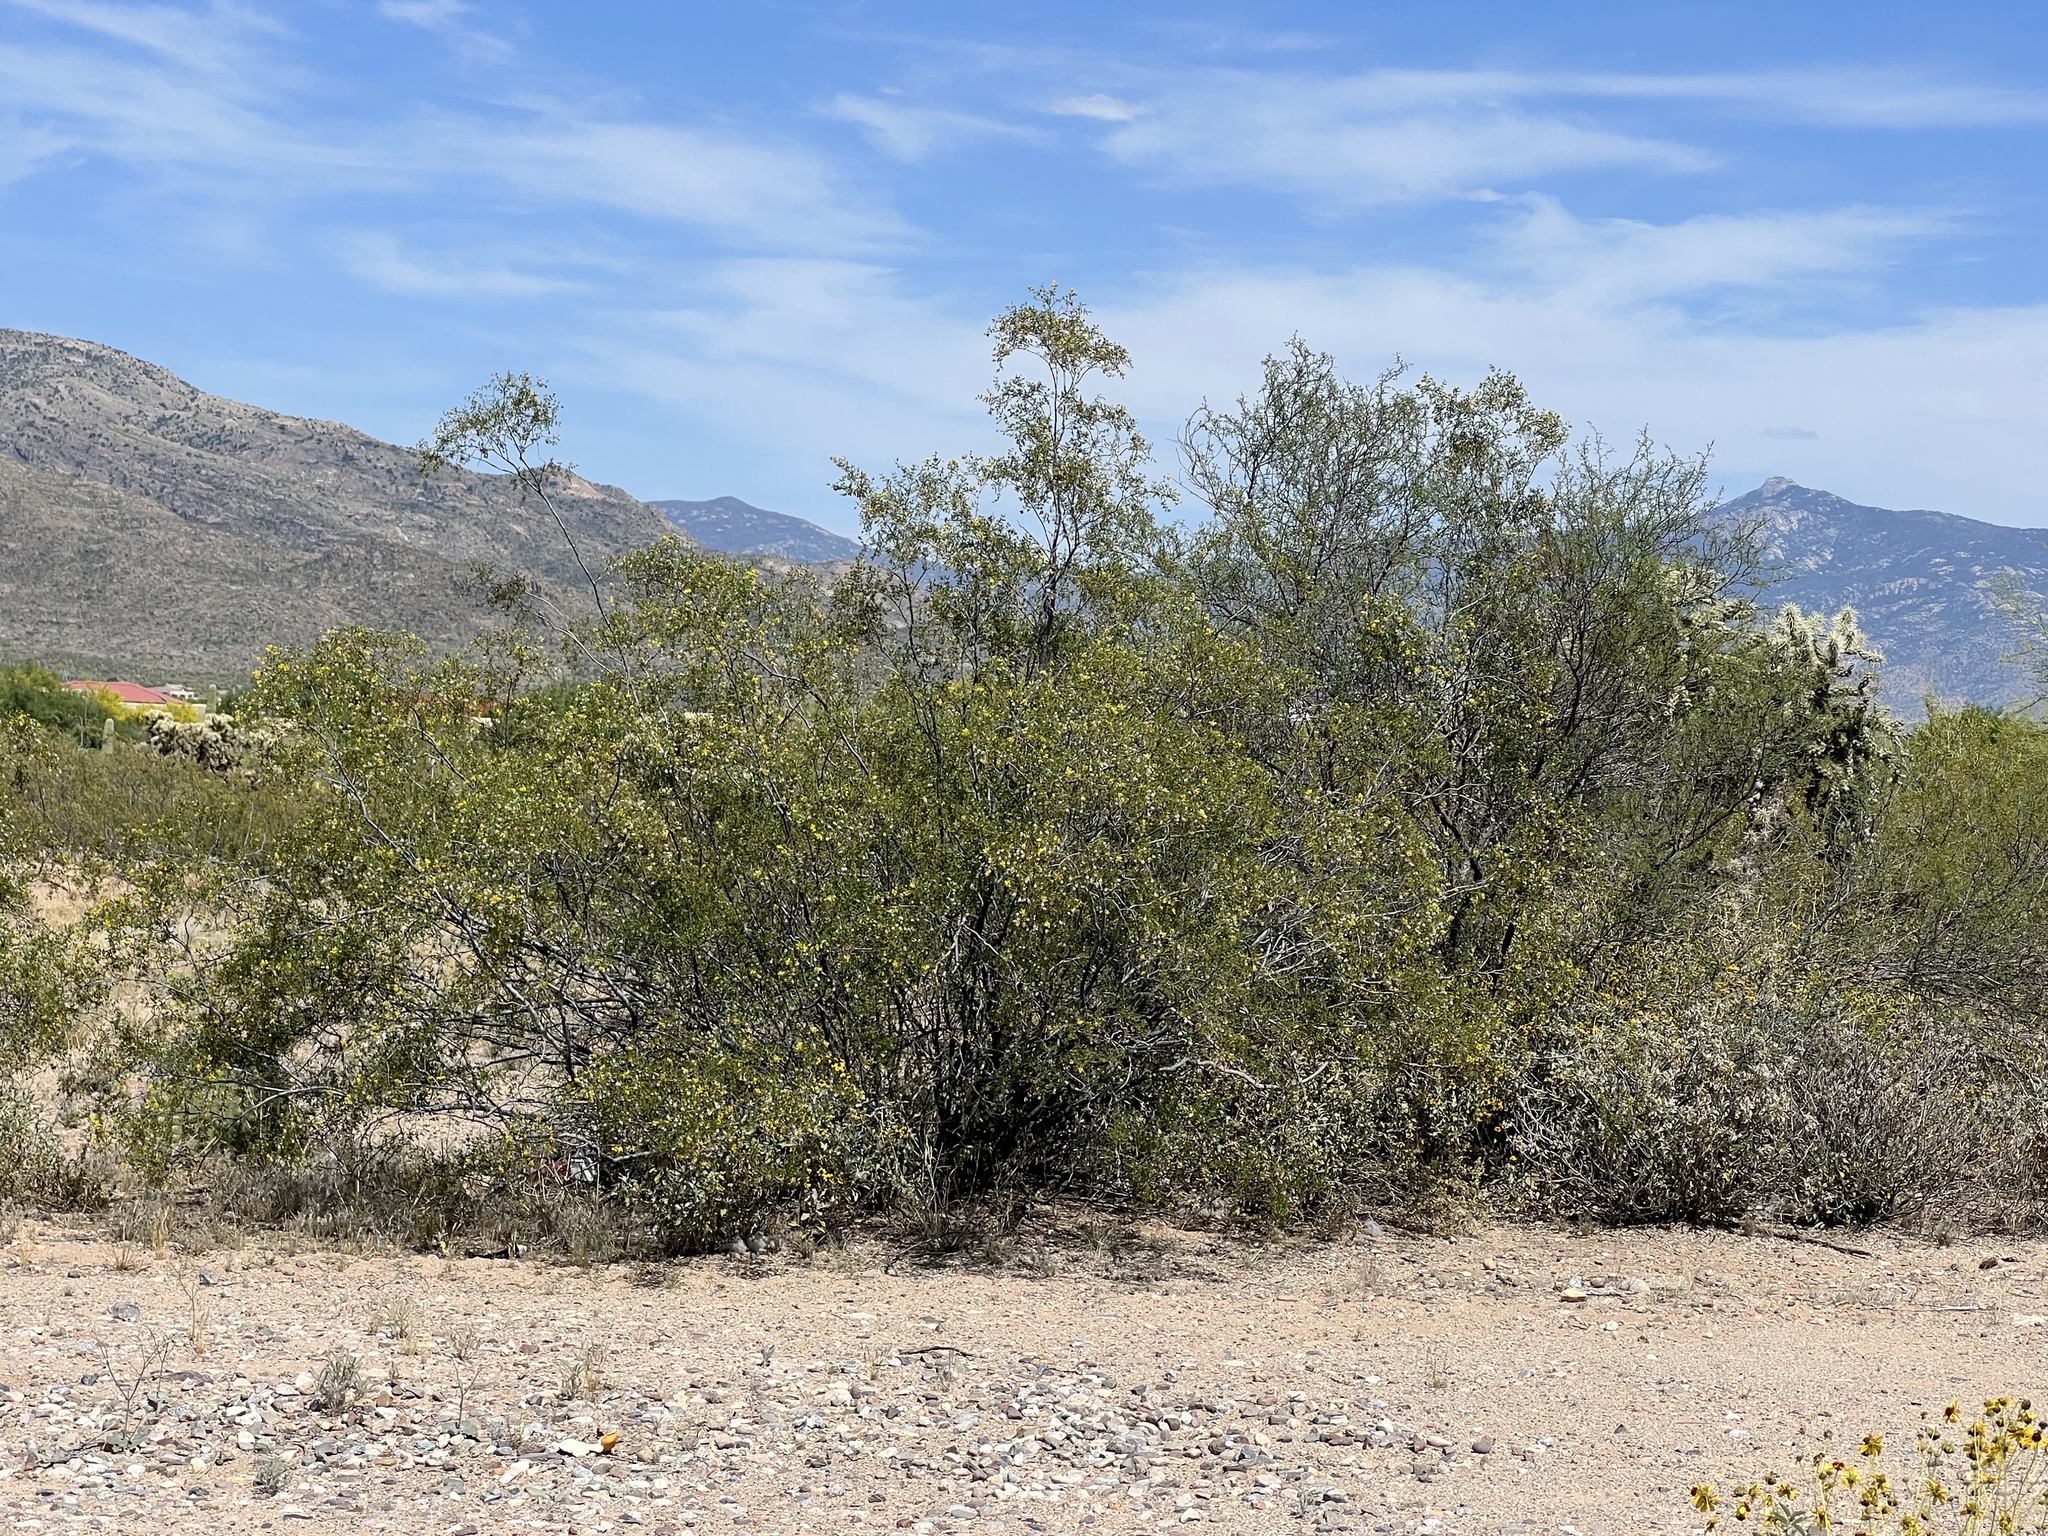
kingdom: Plantae
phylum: Tracheophyta
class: Magnoliopsida
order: Zygophyllales
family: Zygophyllaceae
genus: Larrea
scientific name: Larrea tridentata
